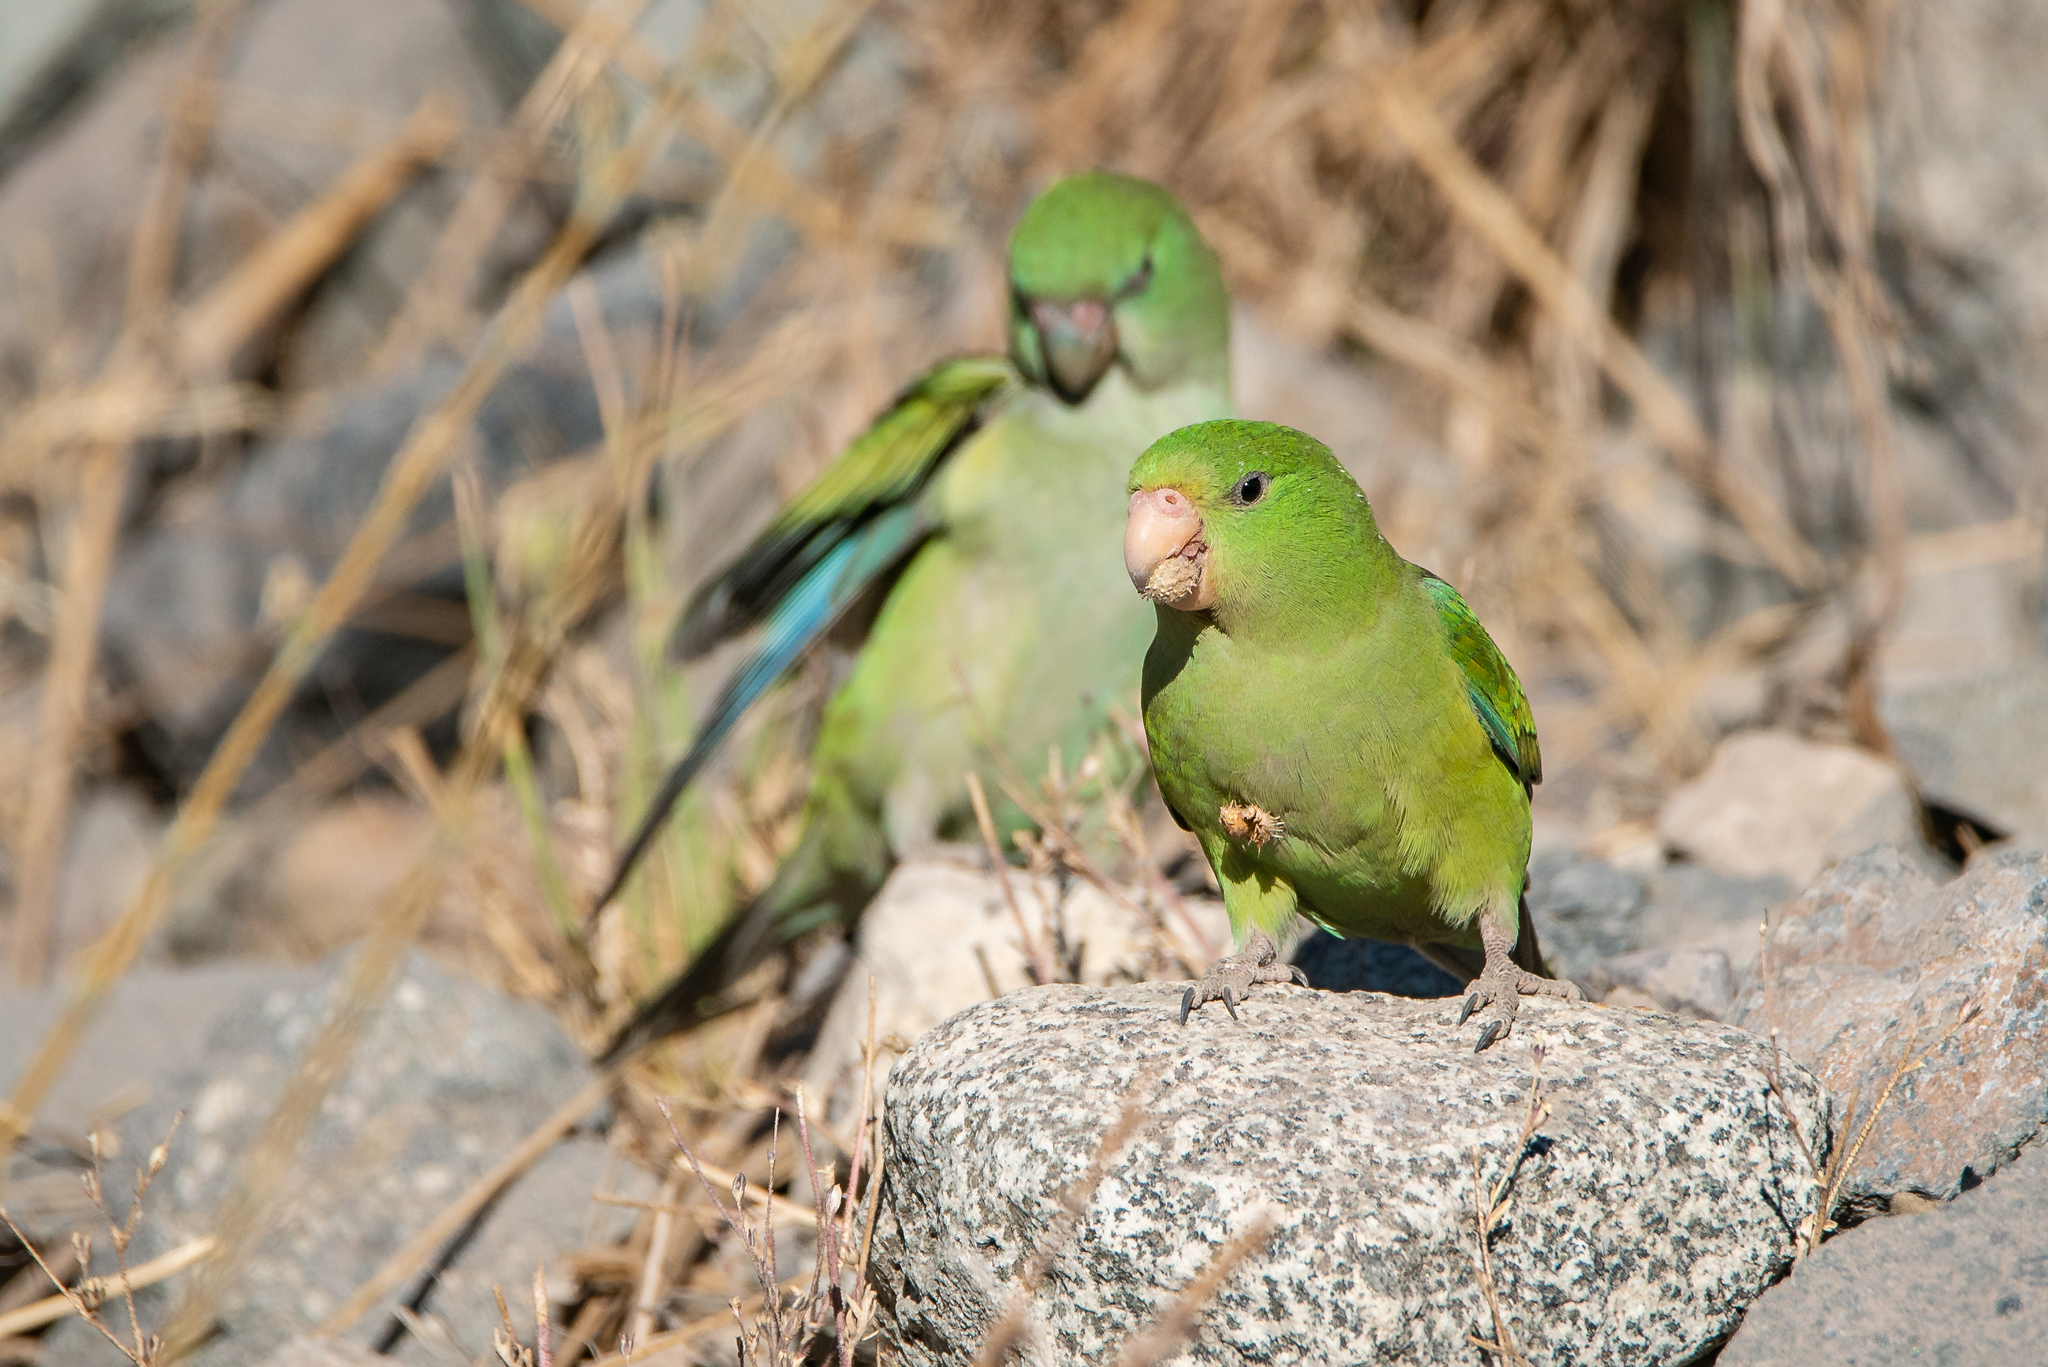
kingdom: Animalia
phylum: Chordata
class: Aves
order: Psittaciformes
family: Psittacidae
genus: Psilopsiagon
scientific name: Psilopsiagon aurifrons
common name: Mountain parakeet
